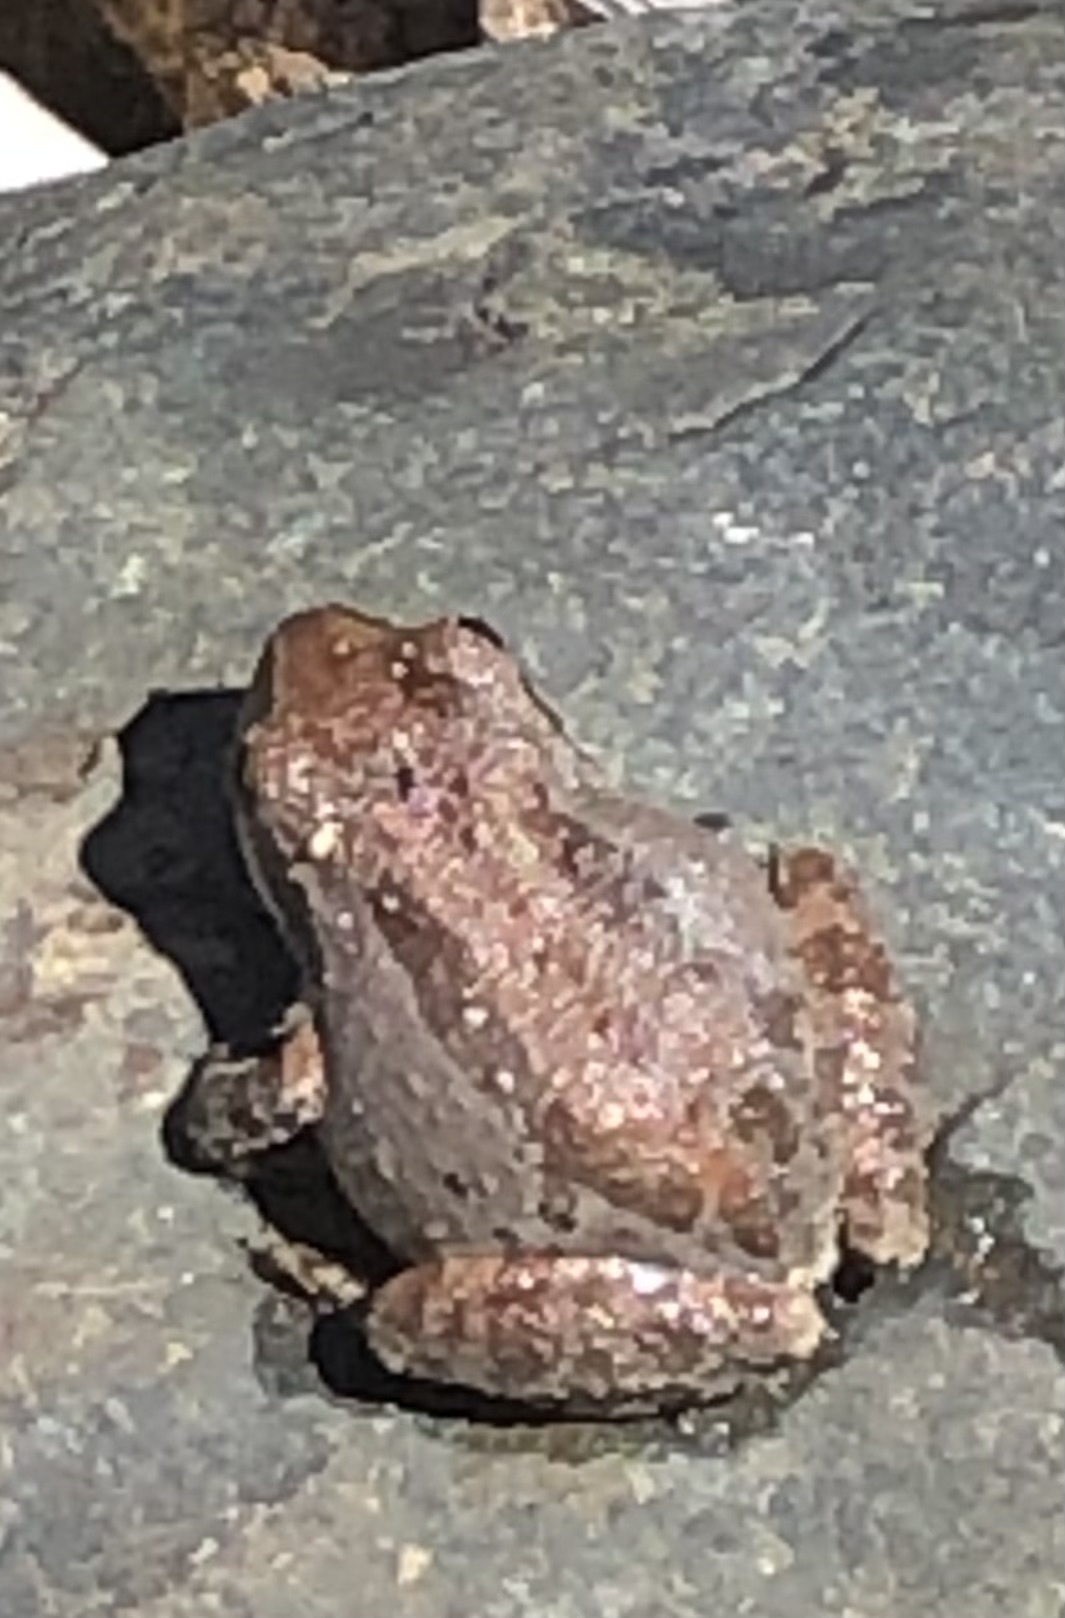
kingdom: Animalia
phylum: Chordata
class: Amphibia
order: Anura
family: Hylidae
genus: Pseudacris
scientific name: Pseudacris regilla
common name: Pacific chorus frog
